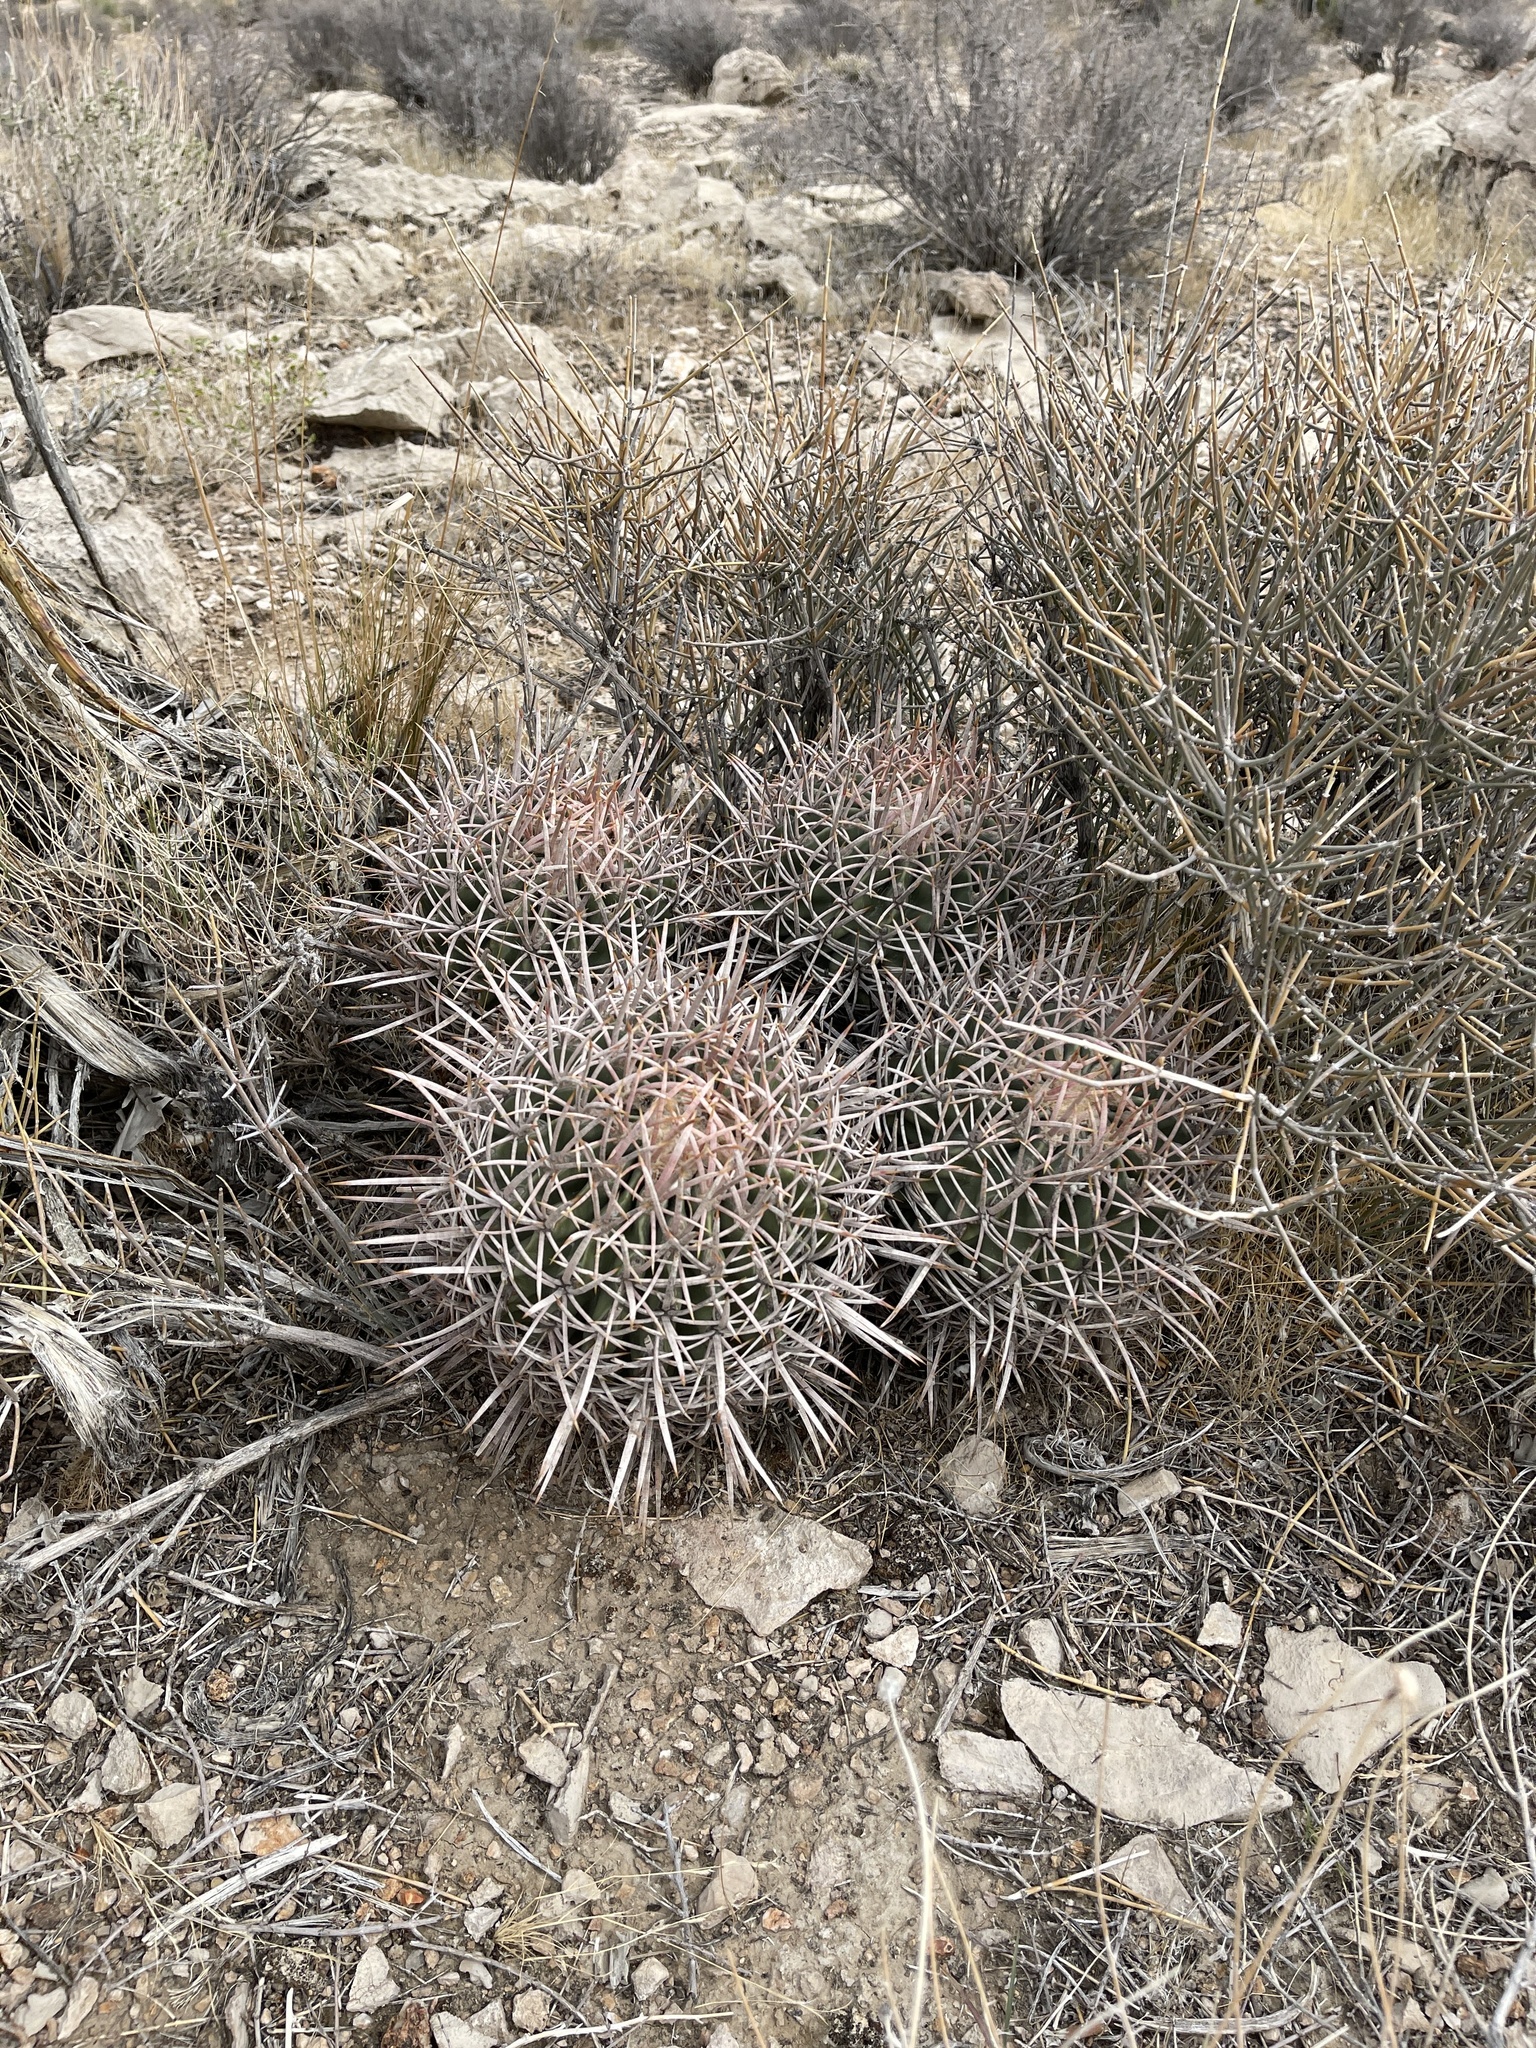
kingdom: Plantae
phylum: Tracheophyta
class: Magnoliopsida
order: Caryophyllales
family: Cactaceae
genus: Echinocactus
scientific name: Echinocactus polycephalus
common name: Cottontop cactus
